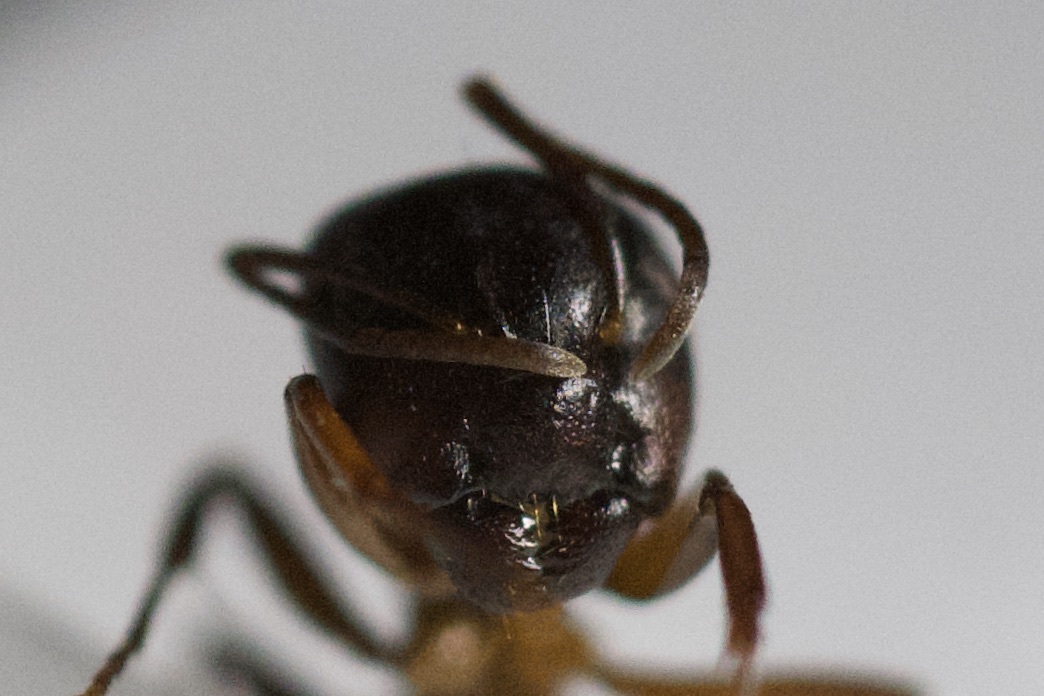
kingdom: Animalia
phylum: Arthropoda
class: Insecta
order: Hymenoptera
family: Formicidae
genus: Camponotus
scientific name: Camponotus nearcticus
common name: Smaller carpenter ant
